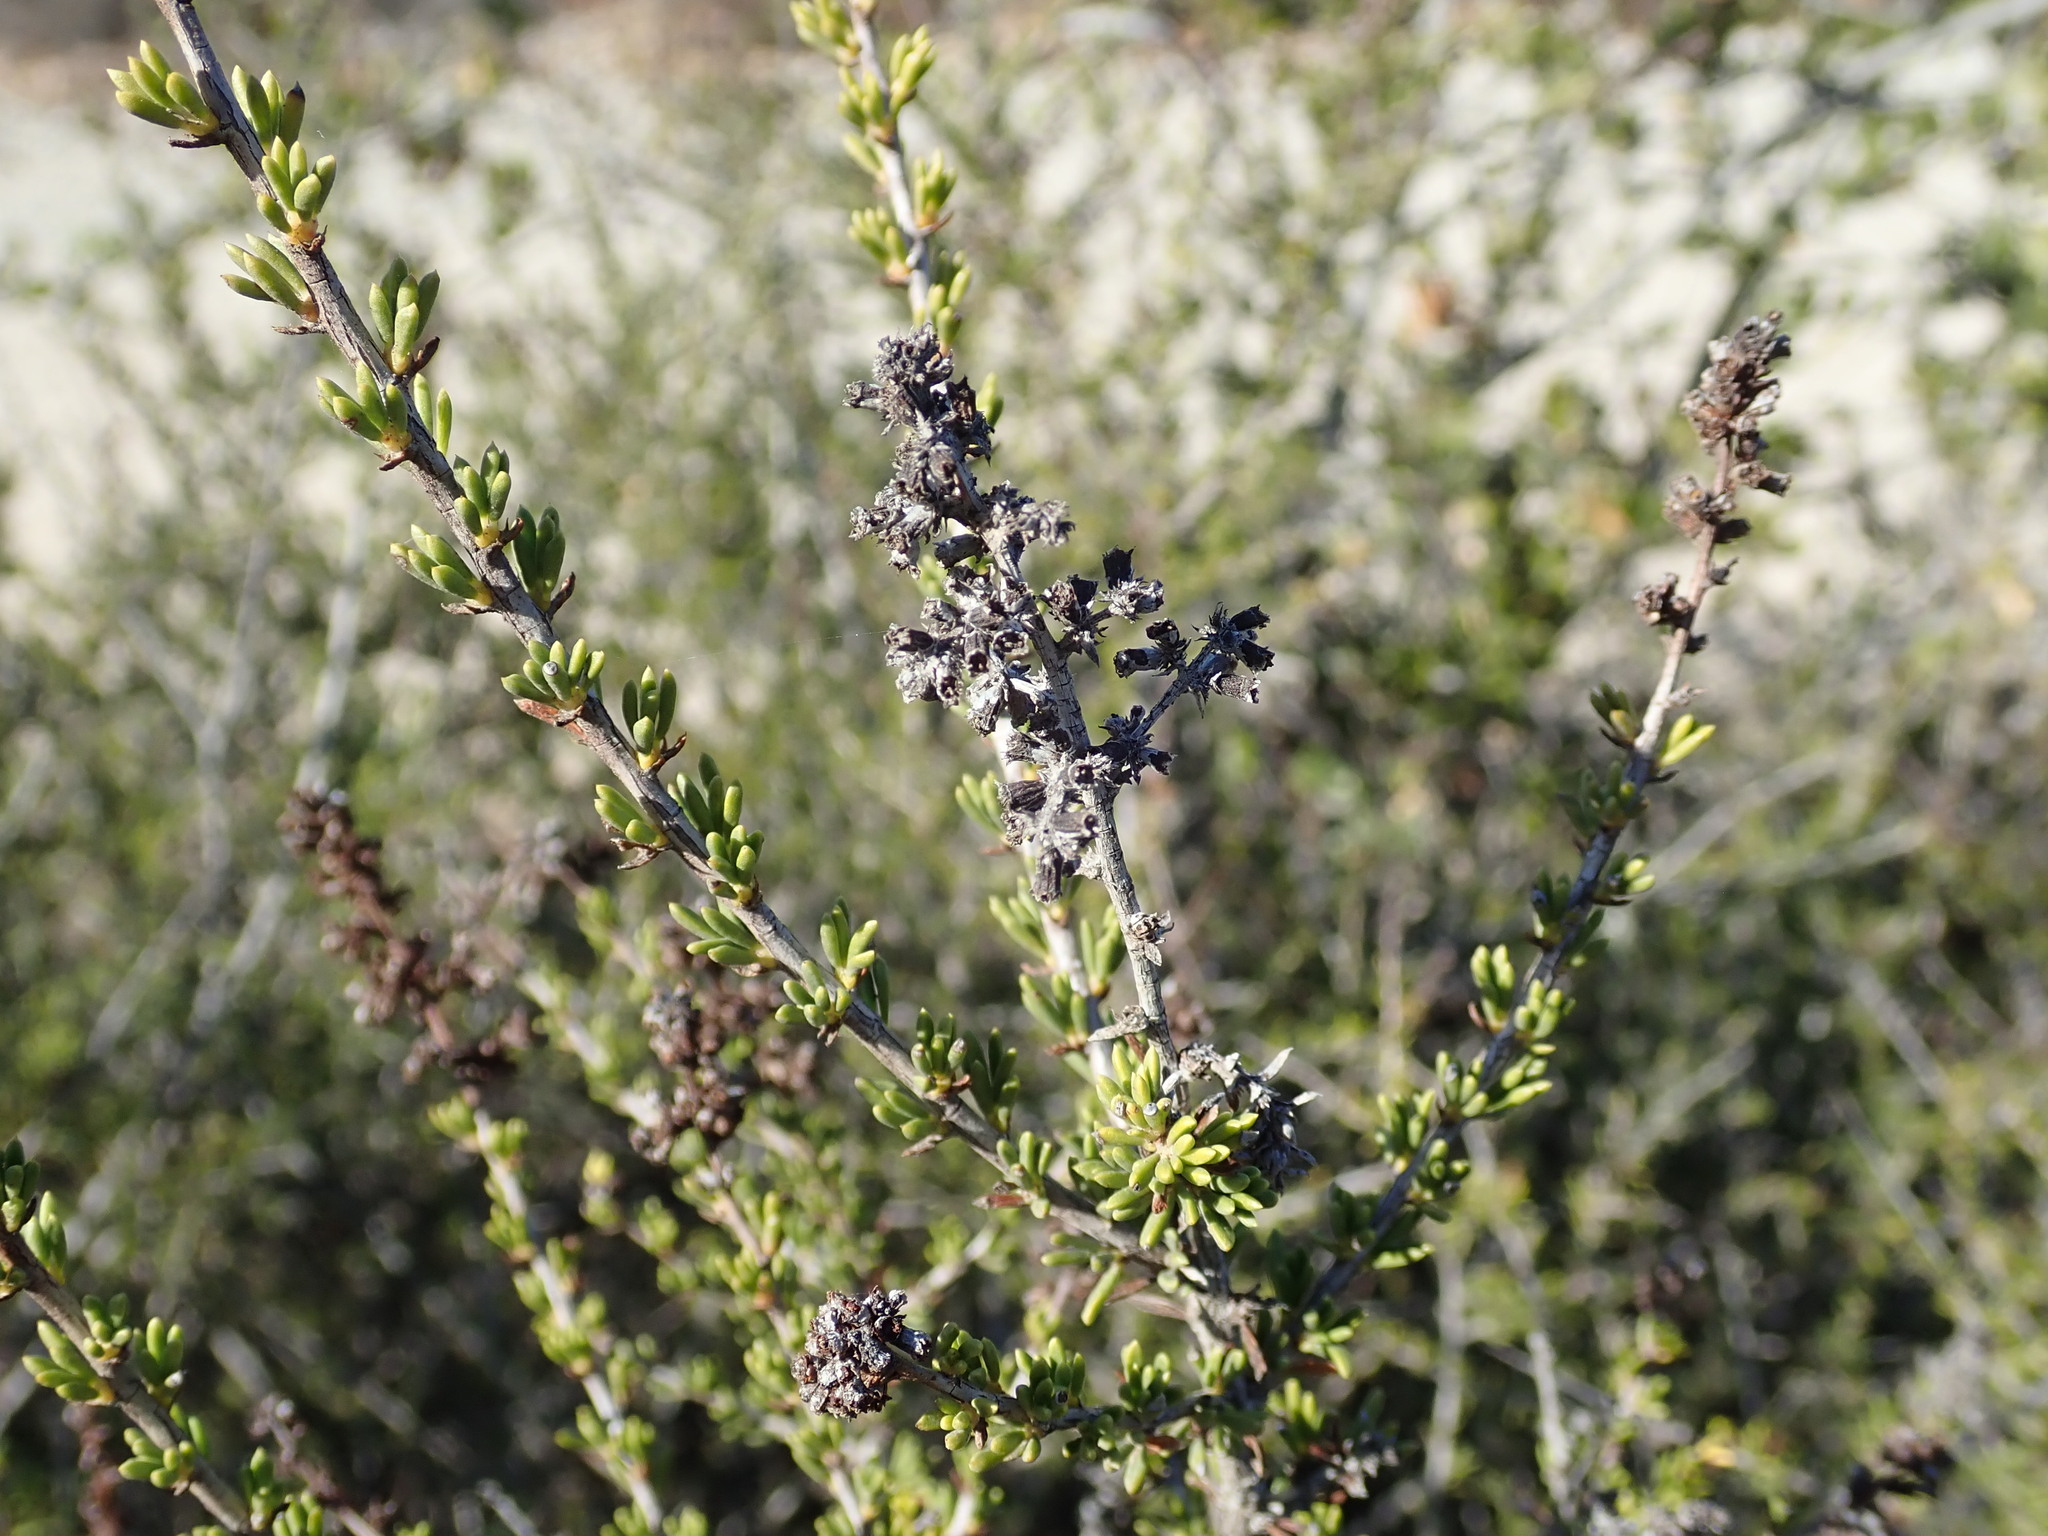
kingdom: Plantae
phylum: Tracheophyta
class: Magnoliopsida
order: Rosales
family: Rosaceae
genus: Adenostoma
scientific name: Adenostoma fasciculatum
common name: Chamise
